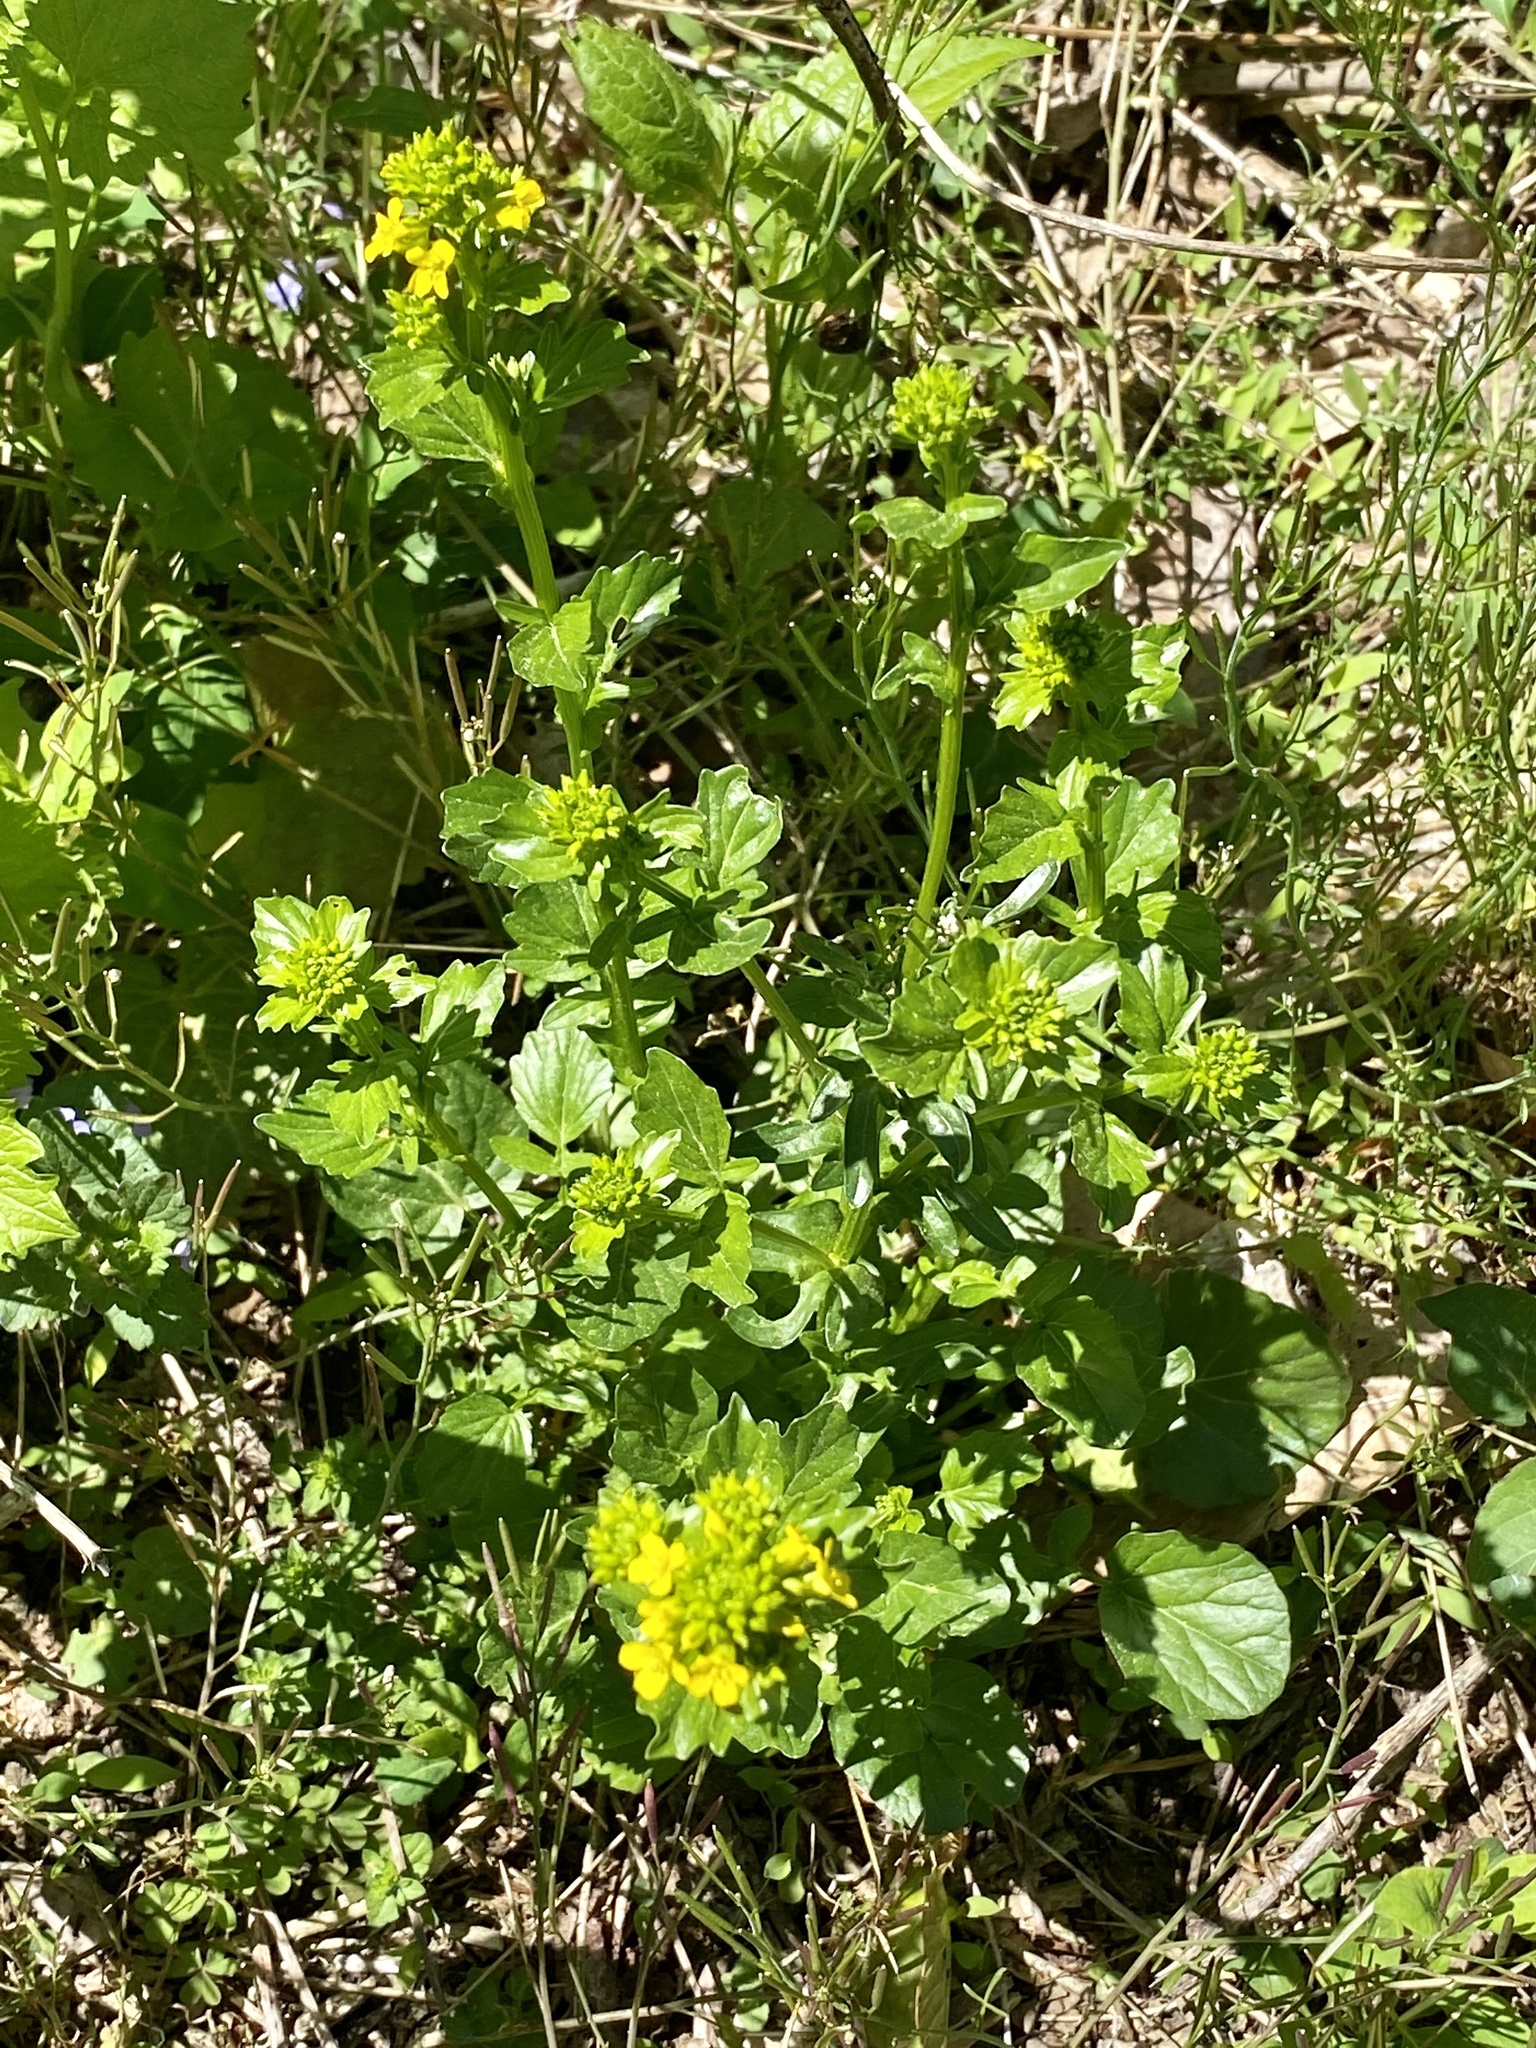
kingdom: Plantae
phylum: Tracheophyta
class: Magnoliopsida
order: Brassicales
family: Brassicaceae
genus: Barbarea
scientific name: Barbarea vulgaris
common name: Cressy-greens
